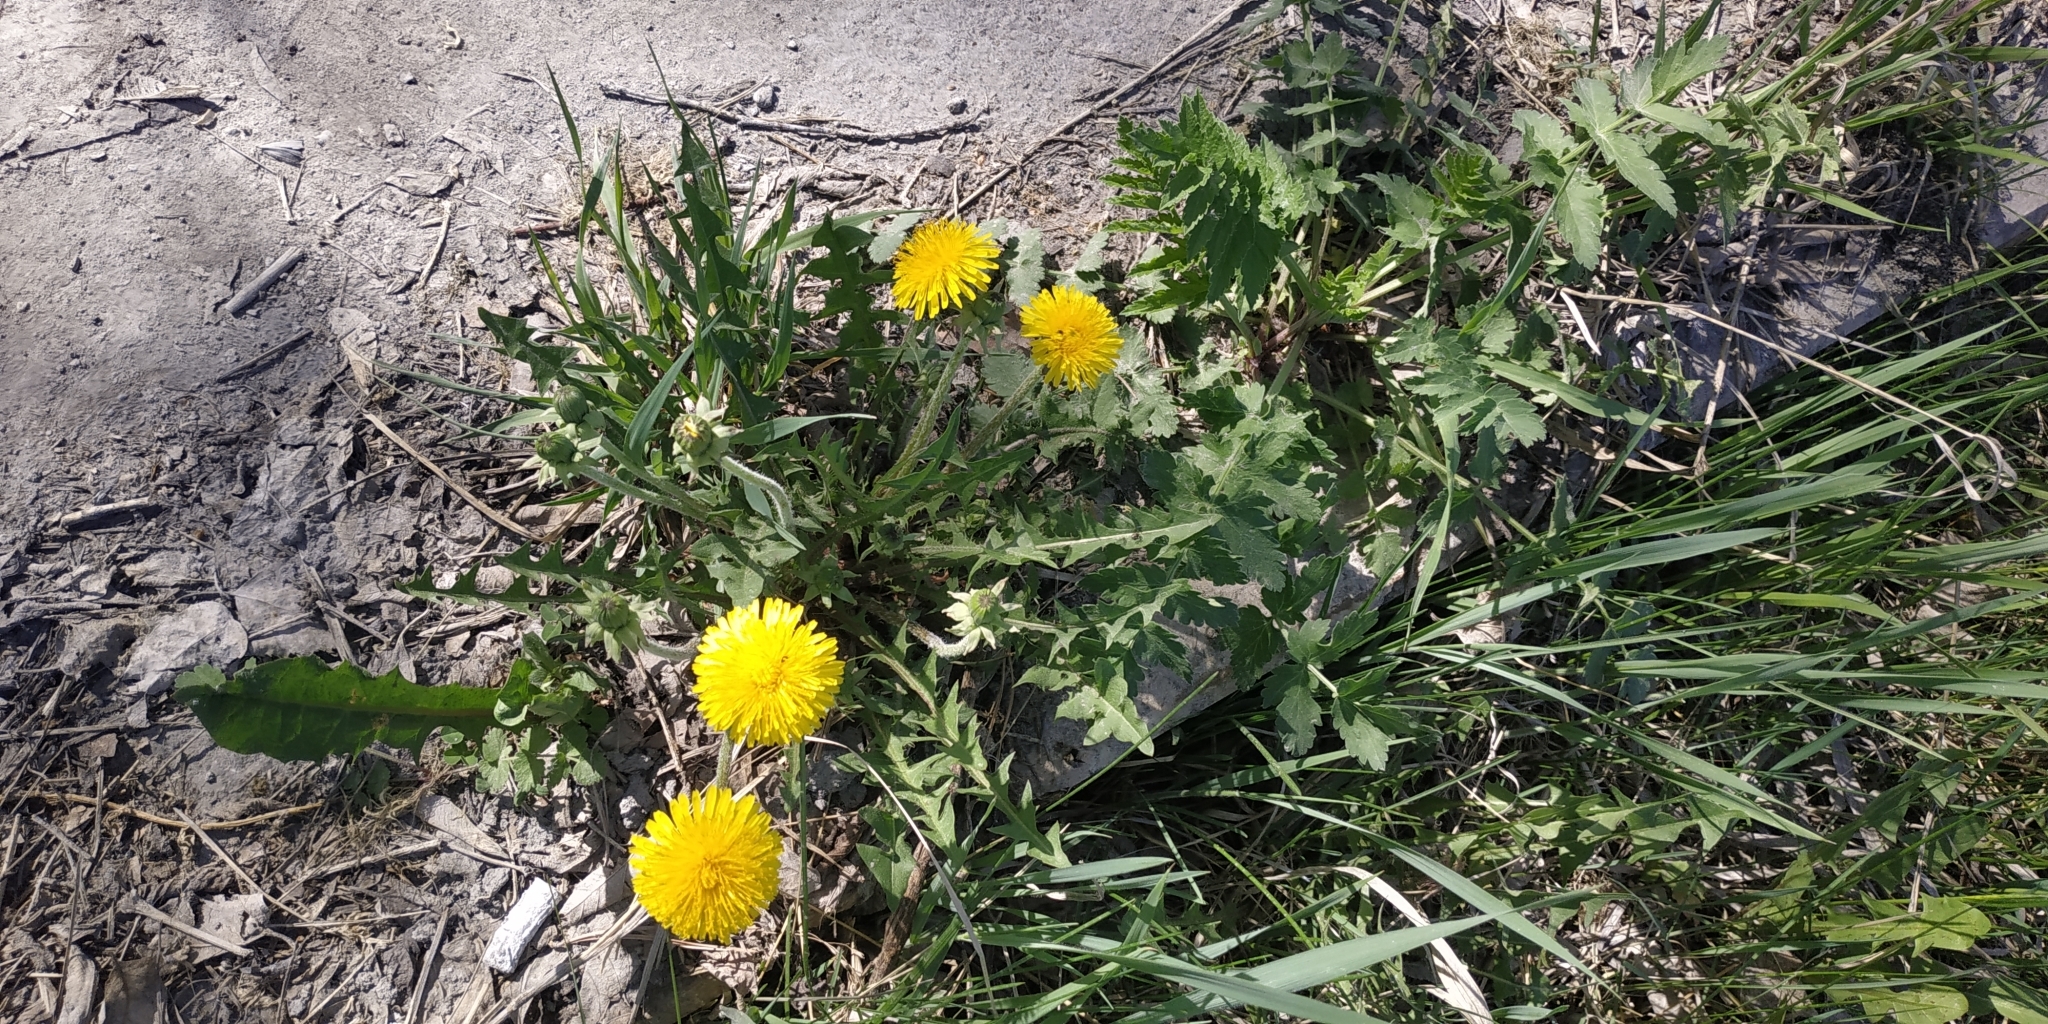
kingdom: Plantae
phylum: Tracheophyta
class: Magnoliopsida
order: Asterales
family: Asteraceae
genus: Taraxacum
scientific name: Taraxacum officinale
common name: Common dandelion
